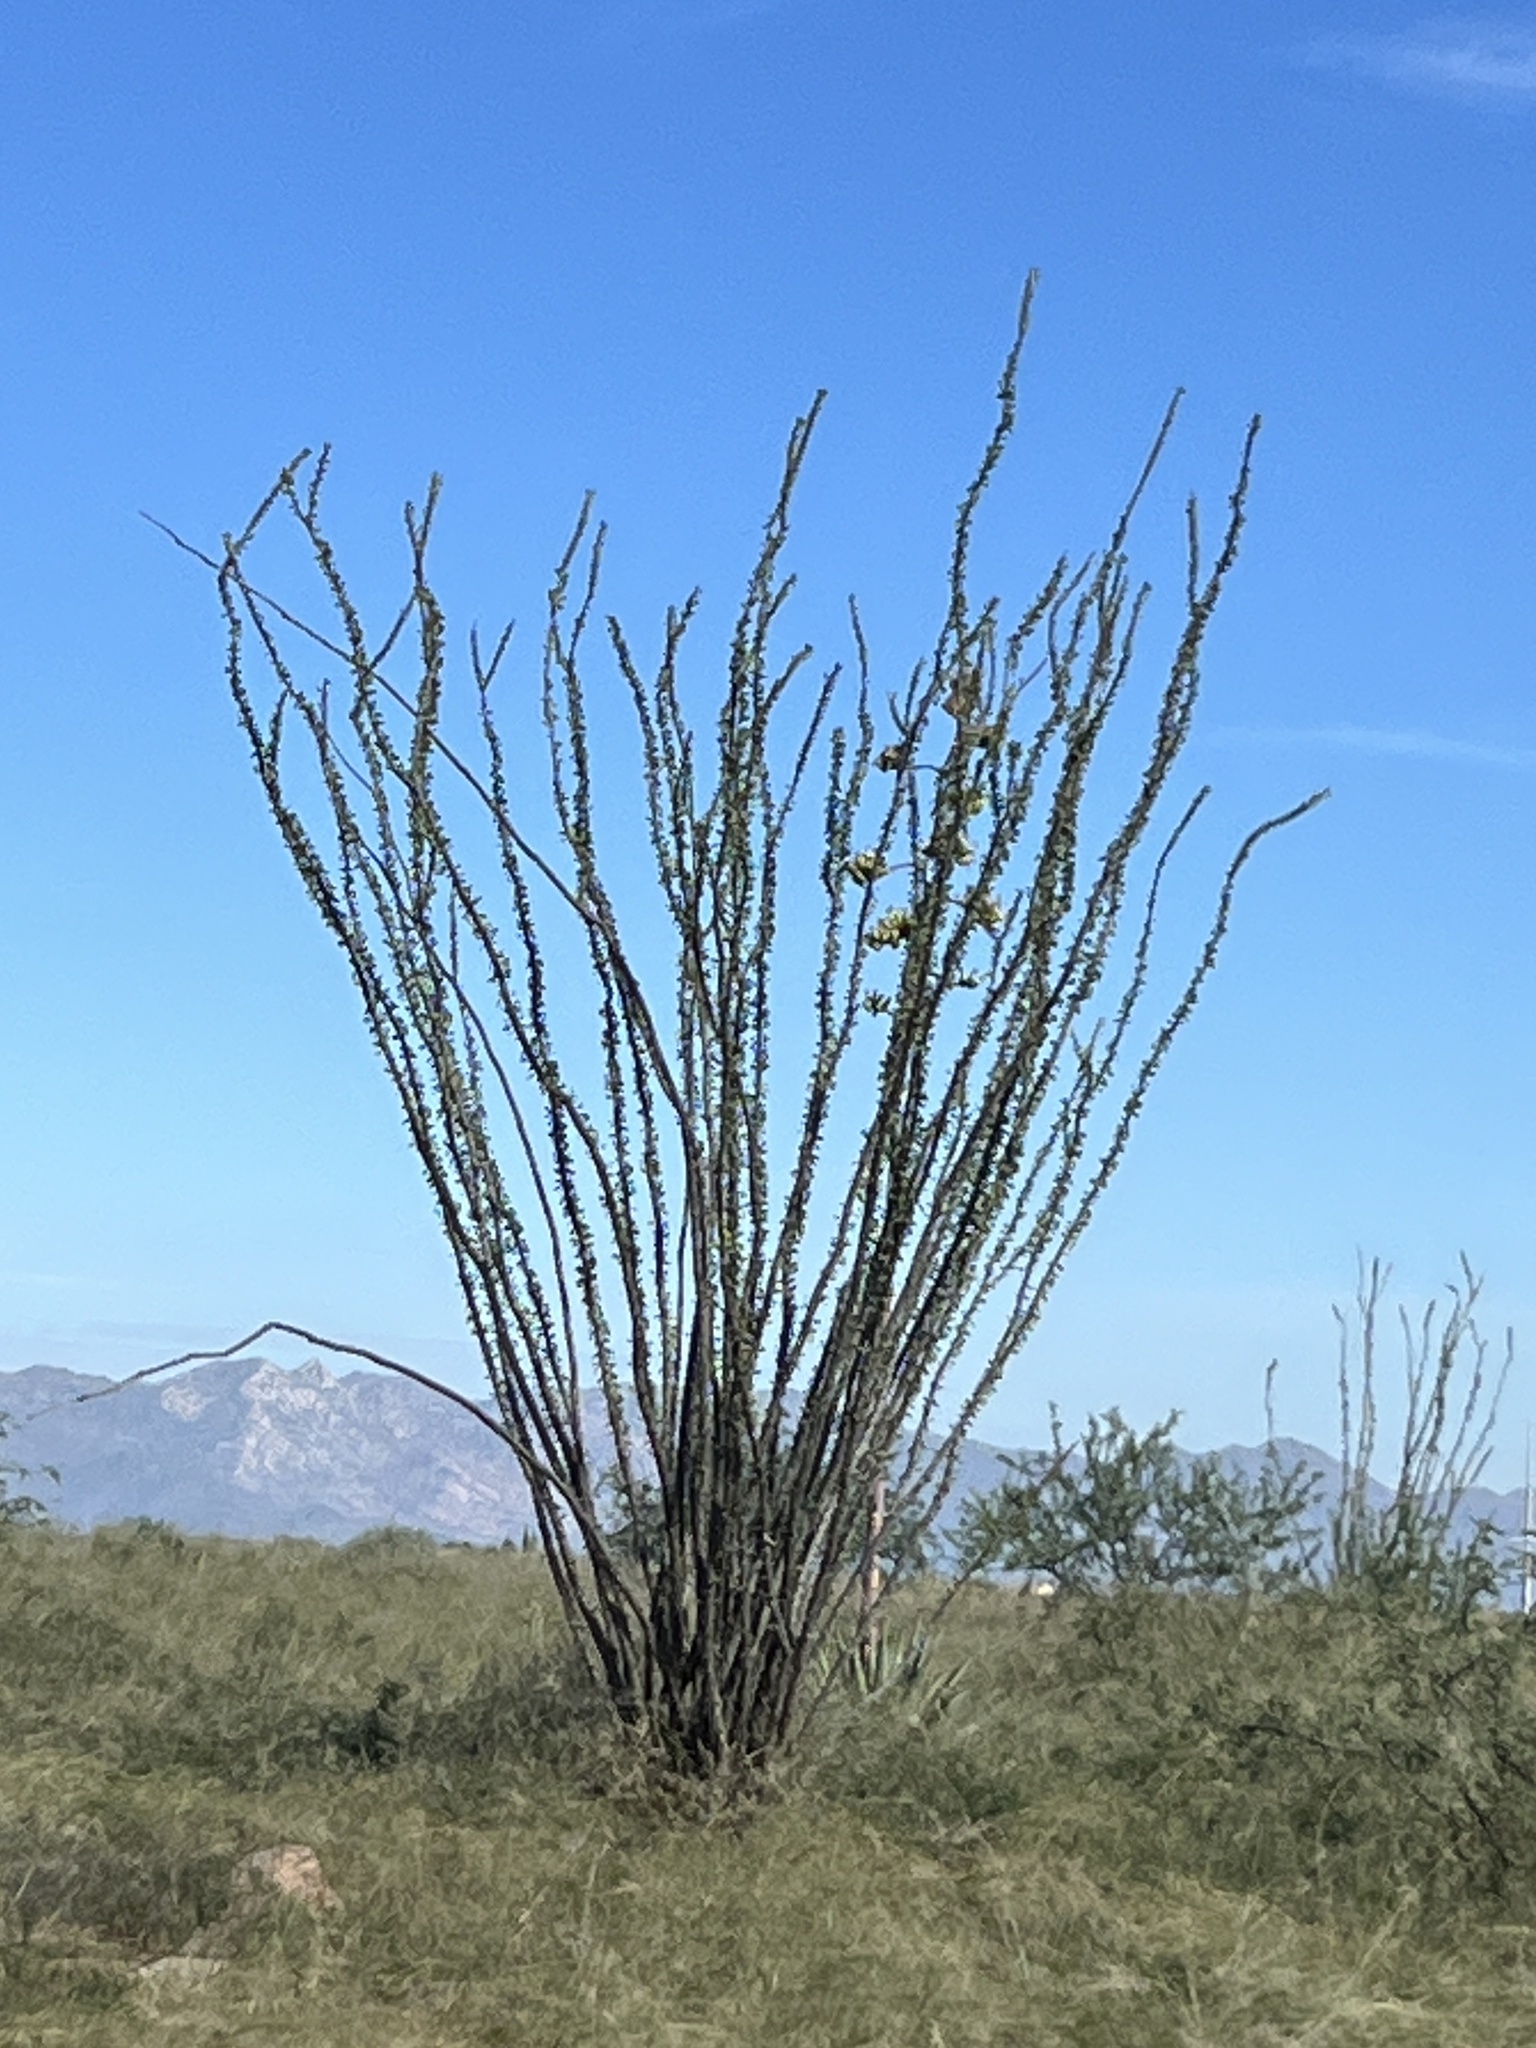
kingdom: Plantae
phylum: Tracheophyta
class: Magnoliopsida
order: Ericales
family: Fouquieriaceae
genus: Fouquieria
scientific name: Fouquieria splendens
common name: Vine-cactus
